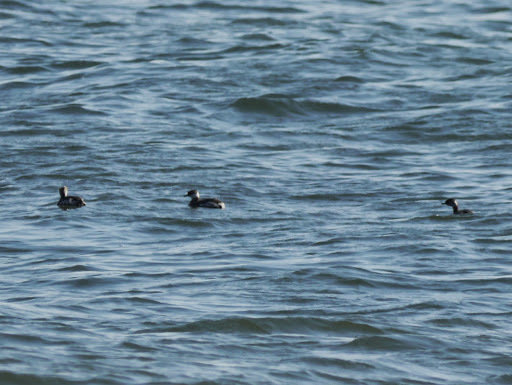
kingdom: Animalia
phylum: Chordata
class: Aves
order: Podicipediformes
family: Podicipedidae
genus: Podiceps
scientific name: Podiceps auritus
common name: Horned grebe
